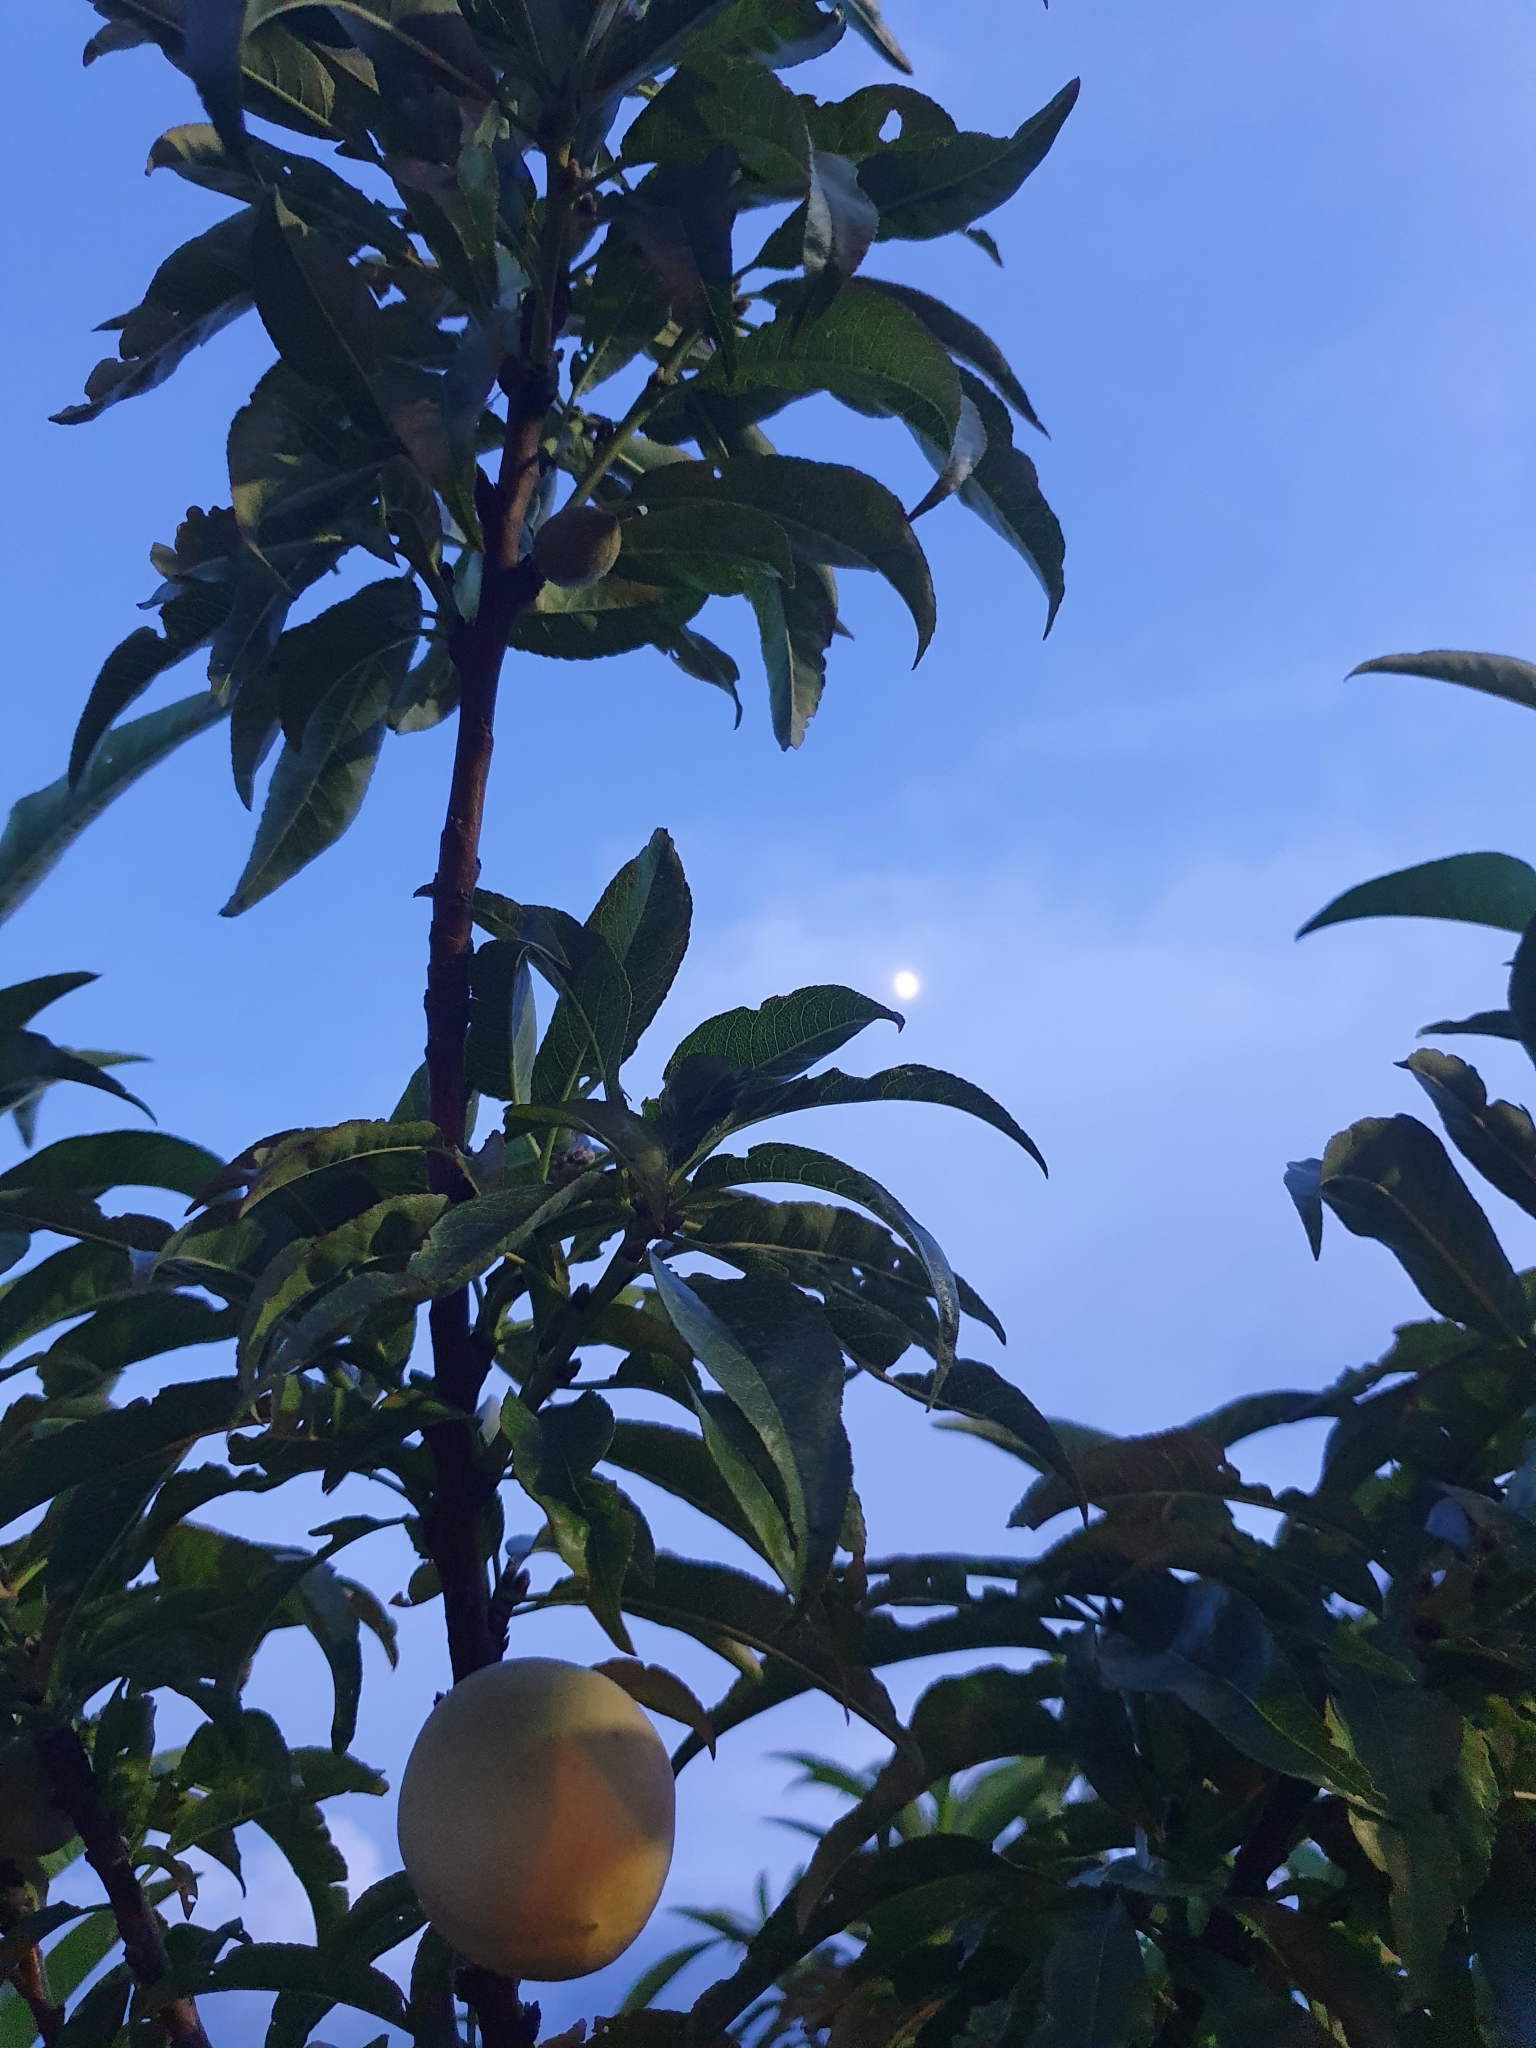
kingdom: Plantae
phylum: Tracheophyta
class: Magnoliopsida
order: Rosales
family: Rosaceae
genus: Prunus
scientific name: Prunus persica
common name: Peach
